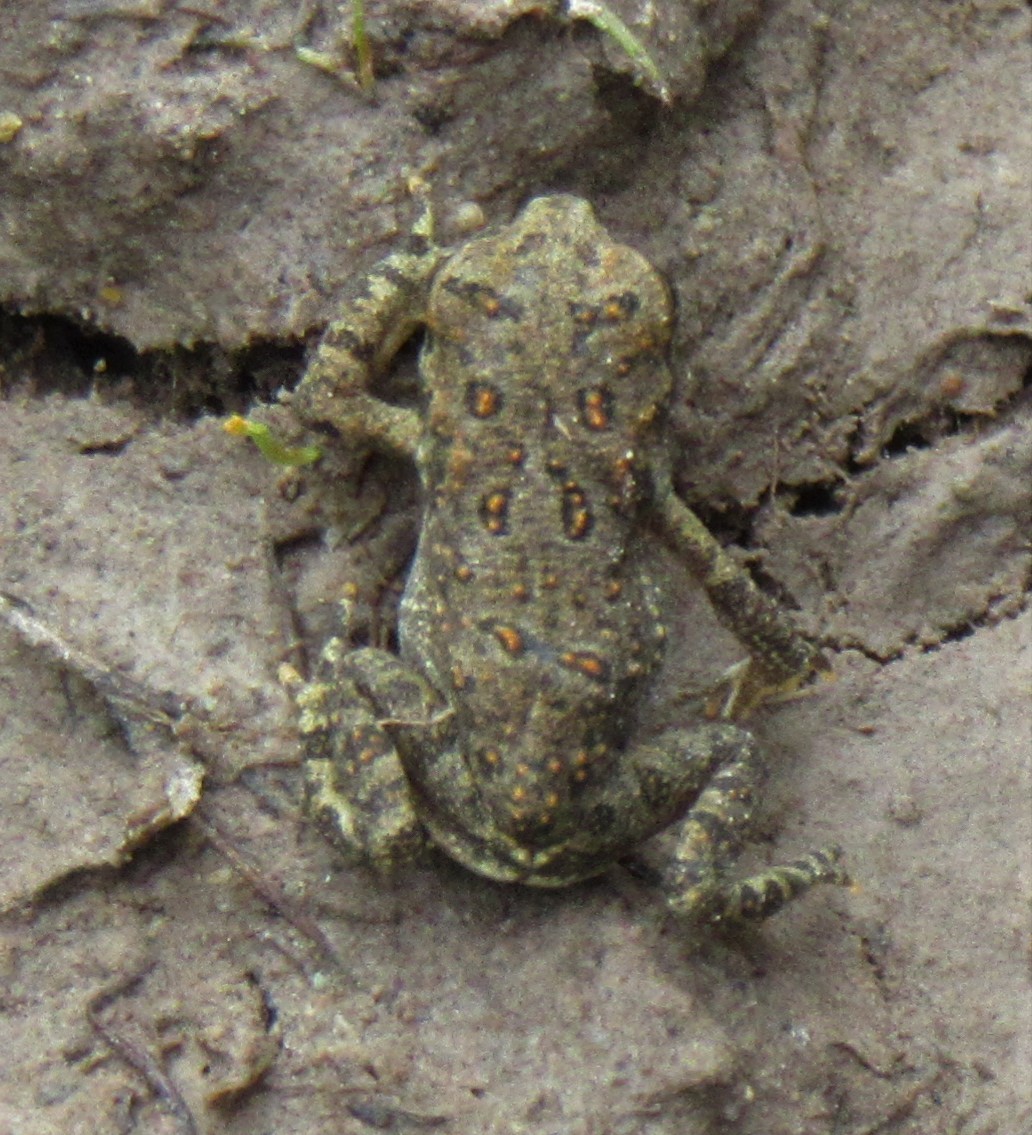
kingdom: Animalia
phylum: Chordata
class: Amphibia
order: Anura
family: Bufonidae
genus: Anaxyrus
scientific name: Anaxyrus americanus
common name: American toad
